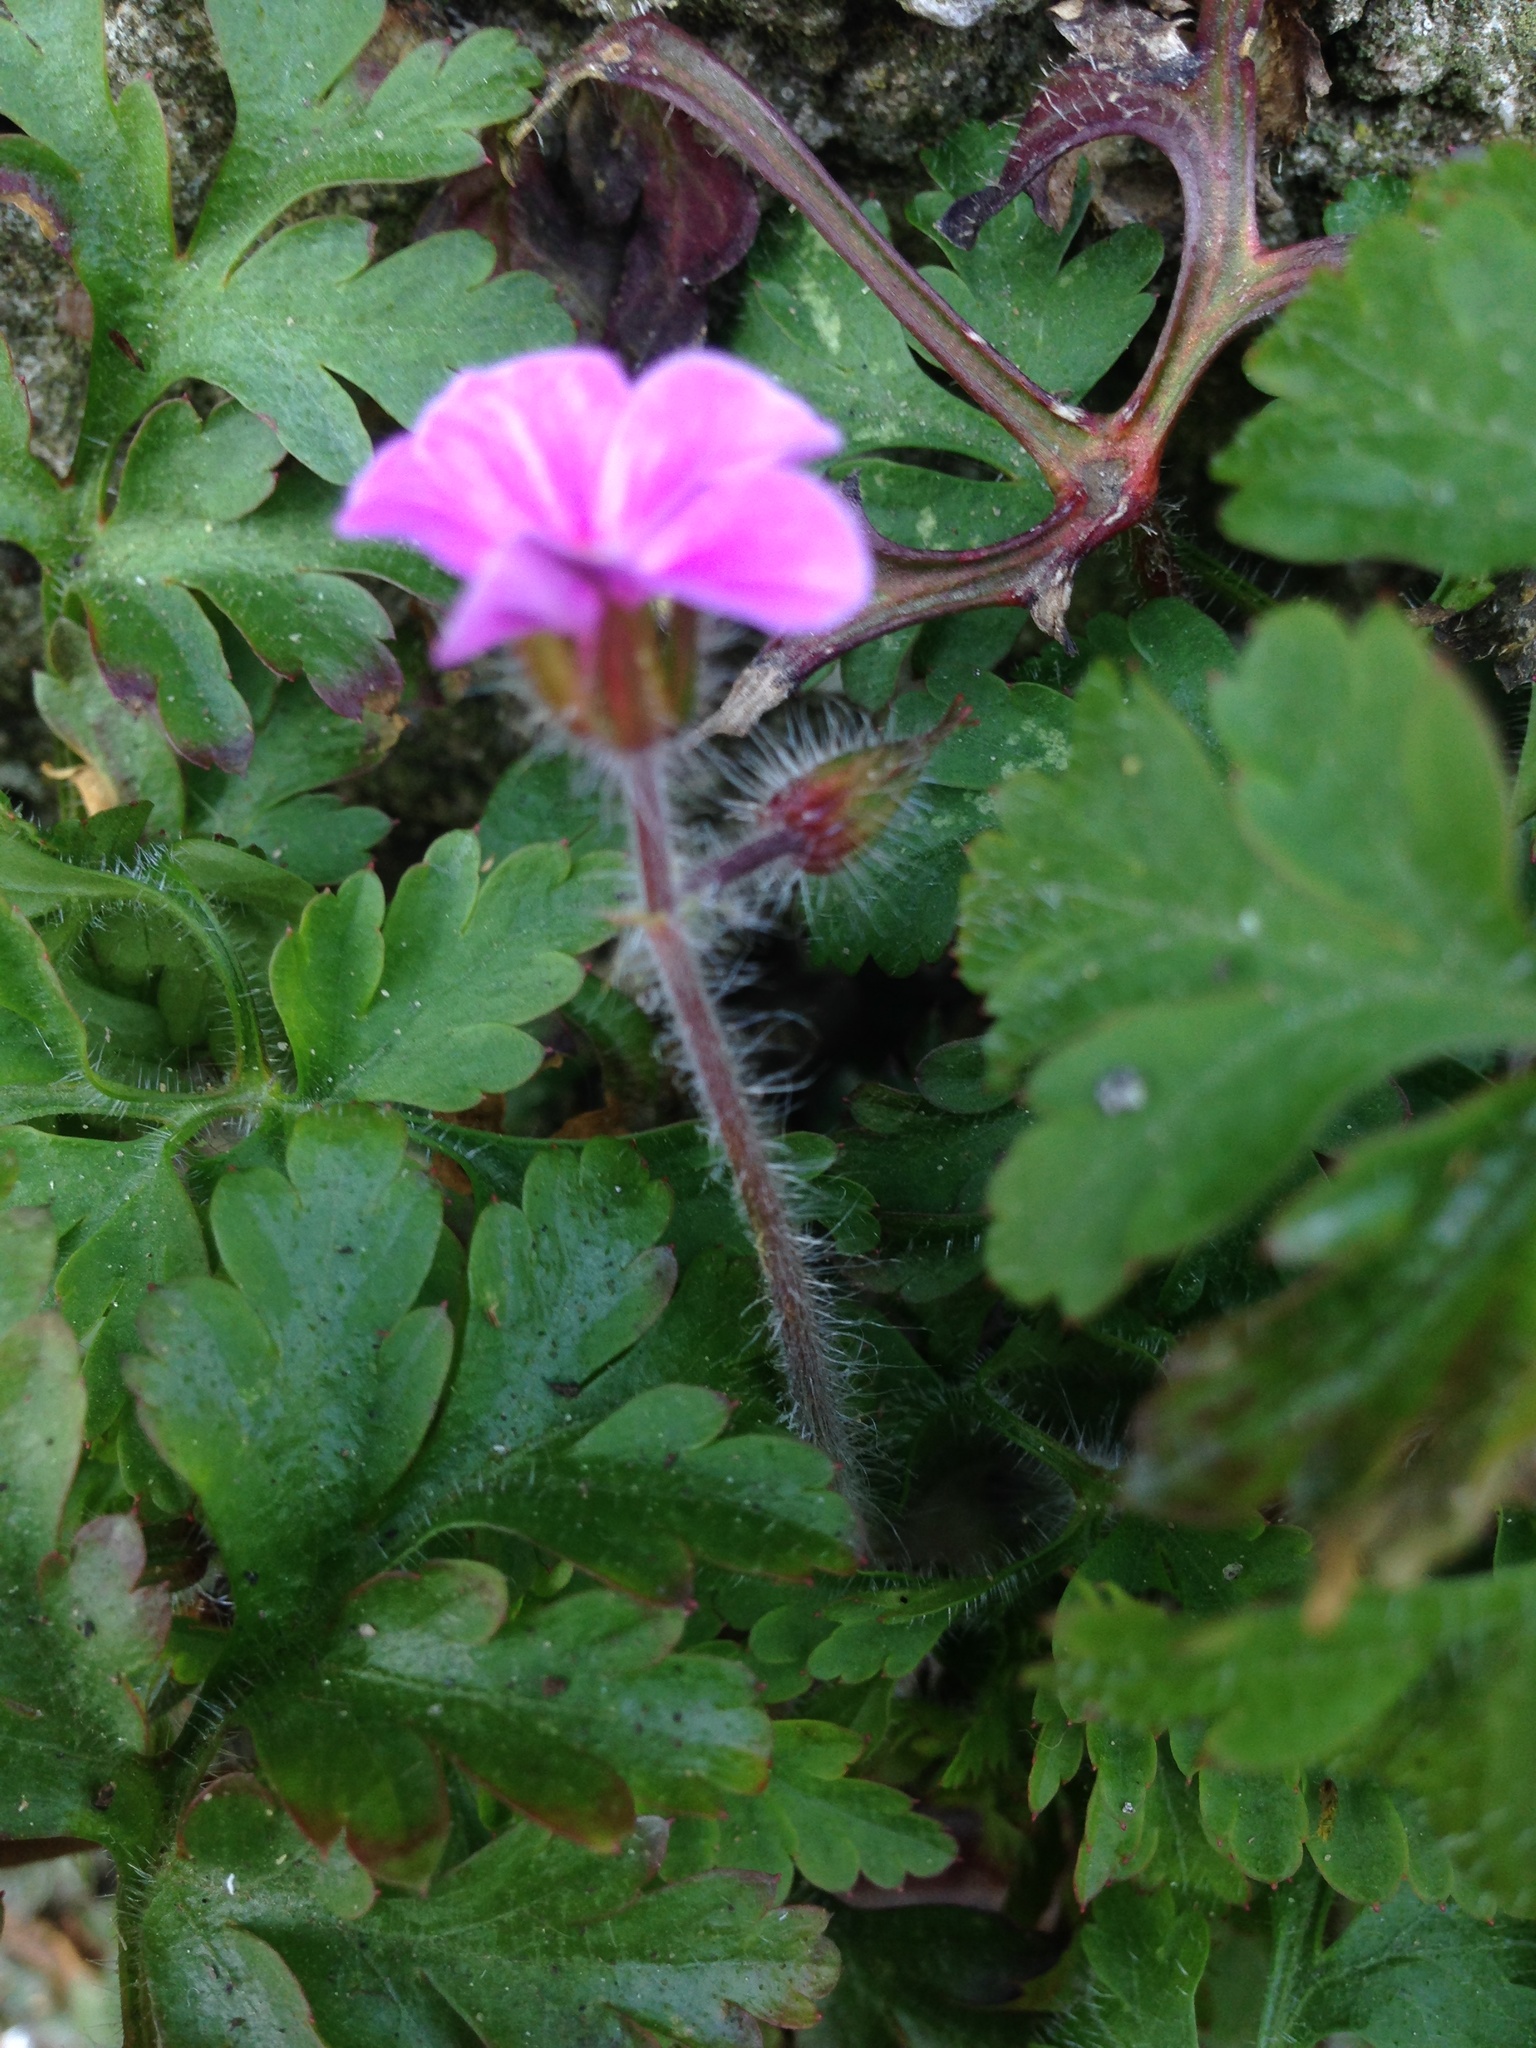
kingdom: Plantae
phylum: Tracheophyta
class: Magnoliopsida
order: Geraniales
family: Geraniaceae
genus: Geranium
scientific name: Geranium robertianum
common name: Herb-robert
